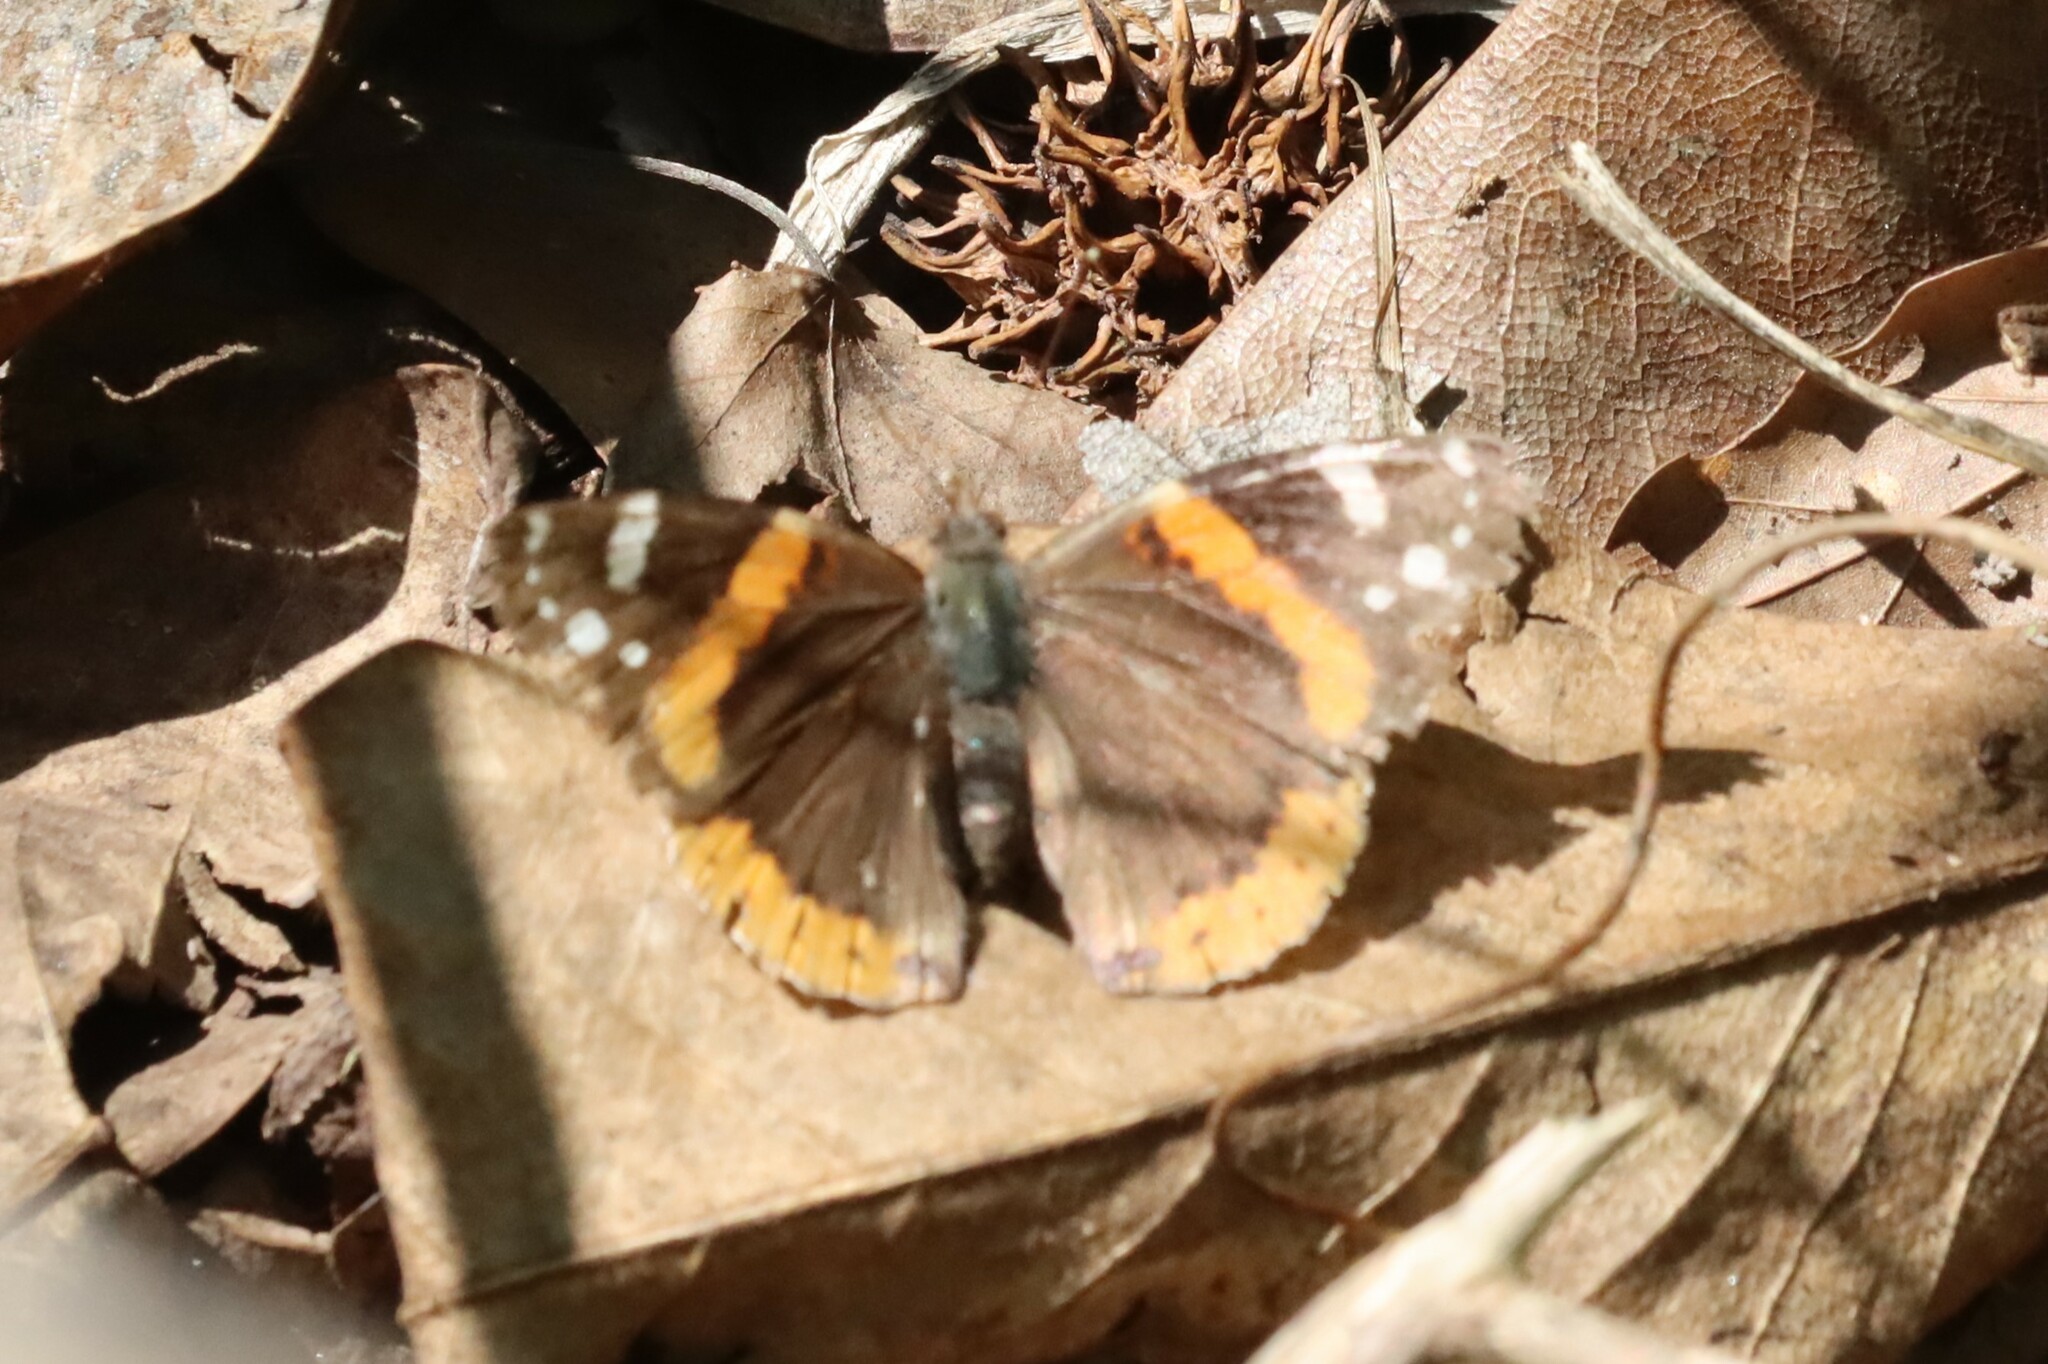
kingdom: Animalia
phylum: Arthropoda
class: Insecta
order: Lepidoptera
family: Nymphalidae
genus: Vanessa
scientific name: Vanessa atalanta
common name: Red admiral
